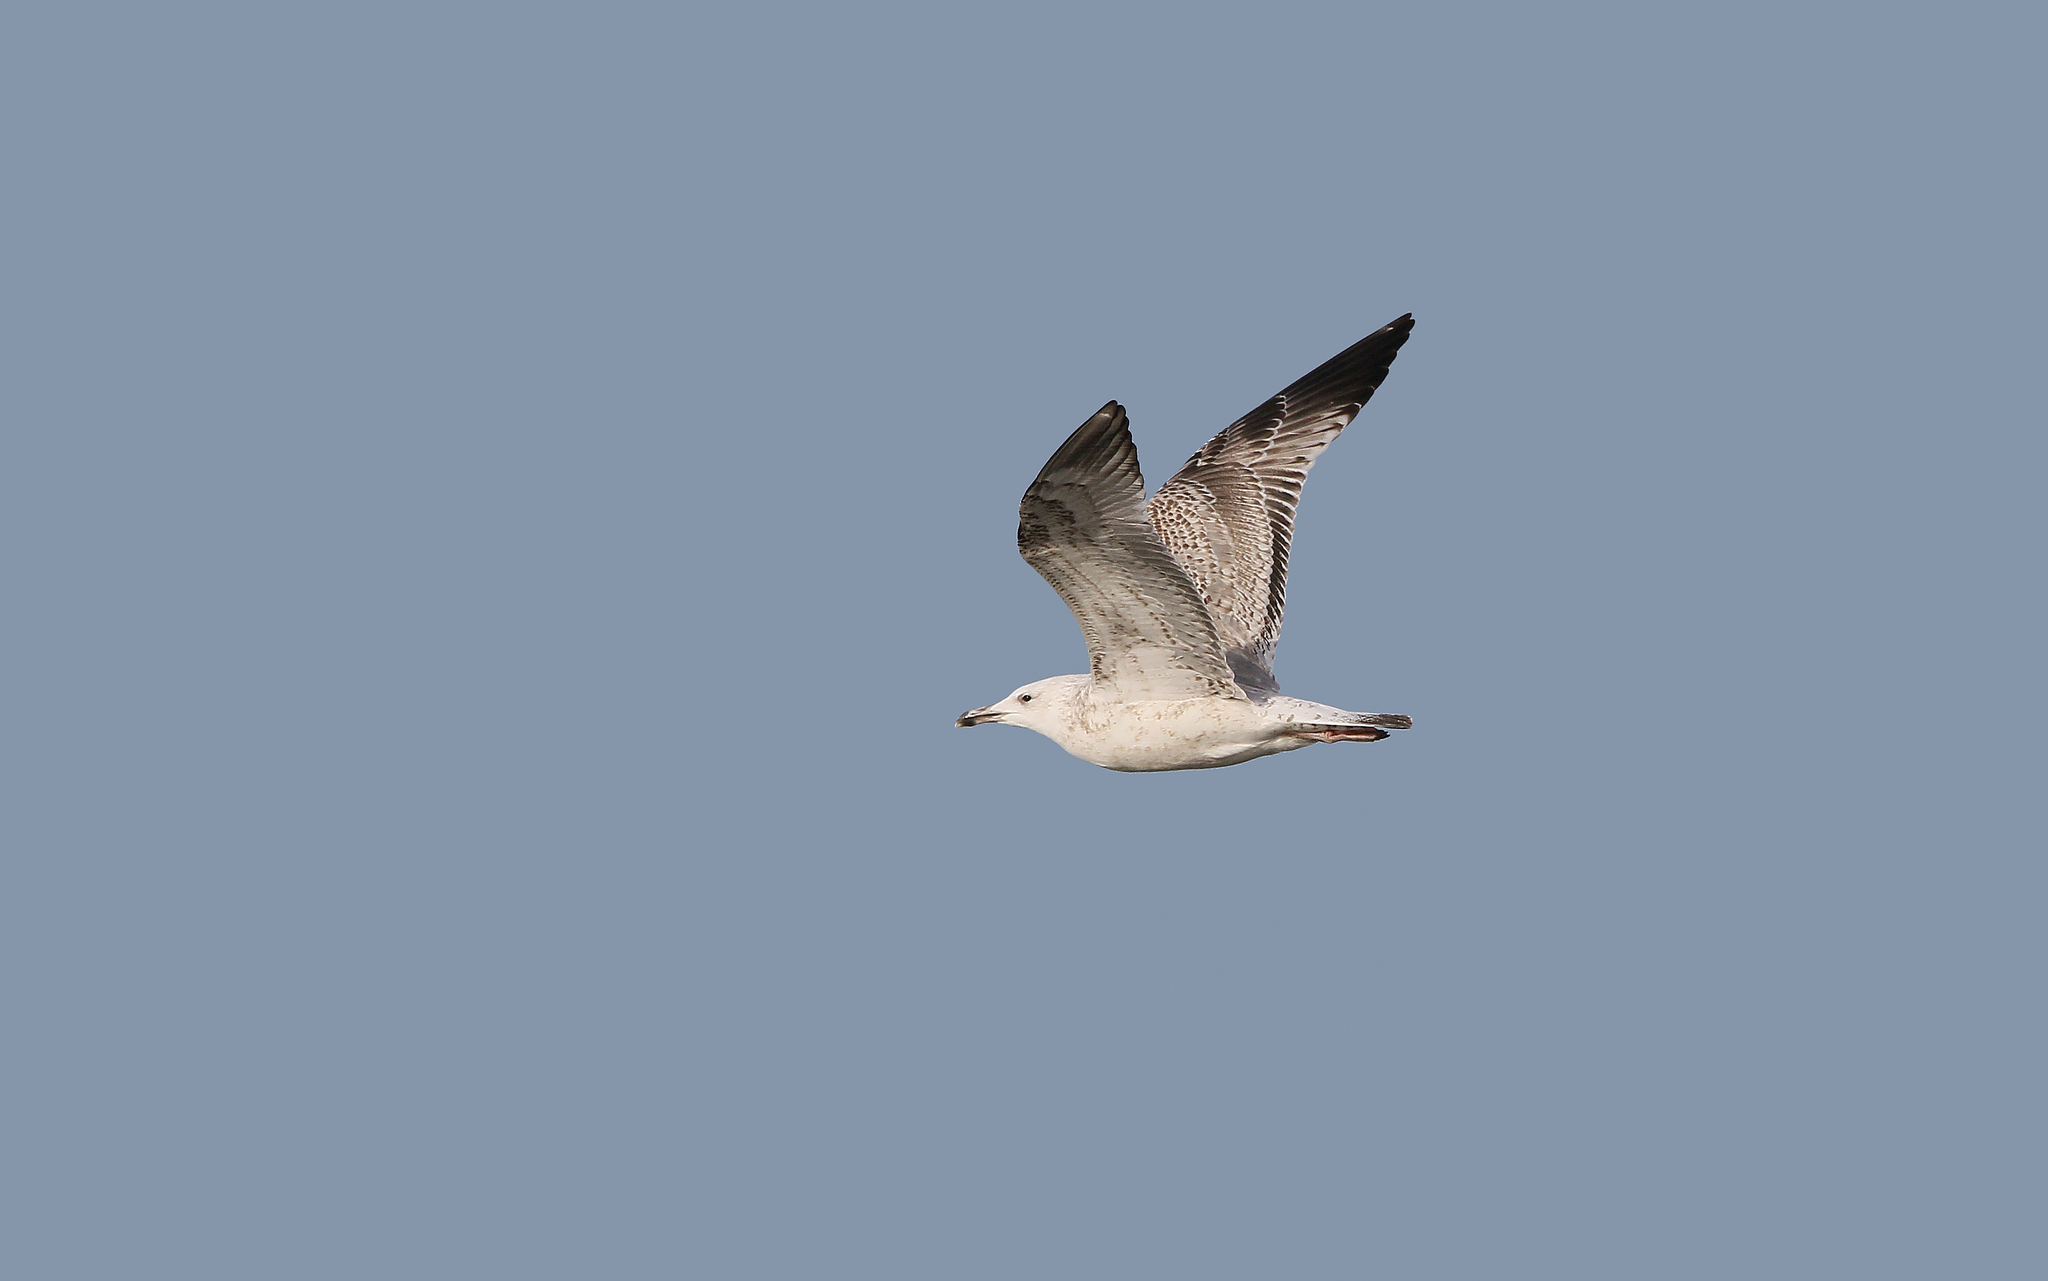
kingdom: Animalia
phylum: Chordata
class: Aves
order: Charadriiformes
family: Laridae
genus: Larus
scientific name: Larus cachinnans
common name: Caspian gull
